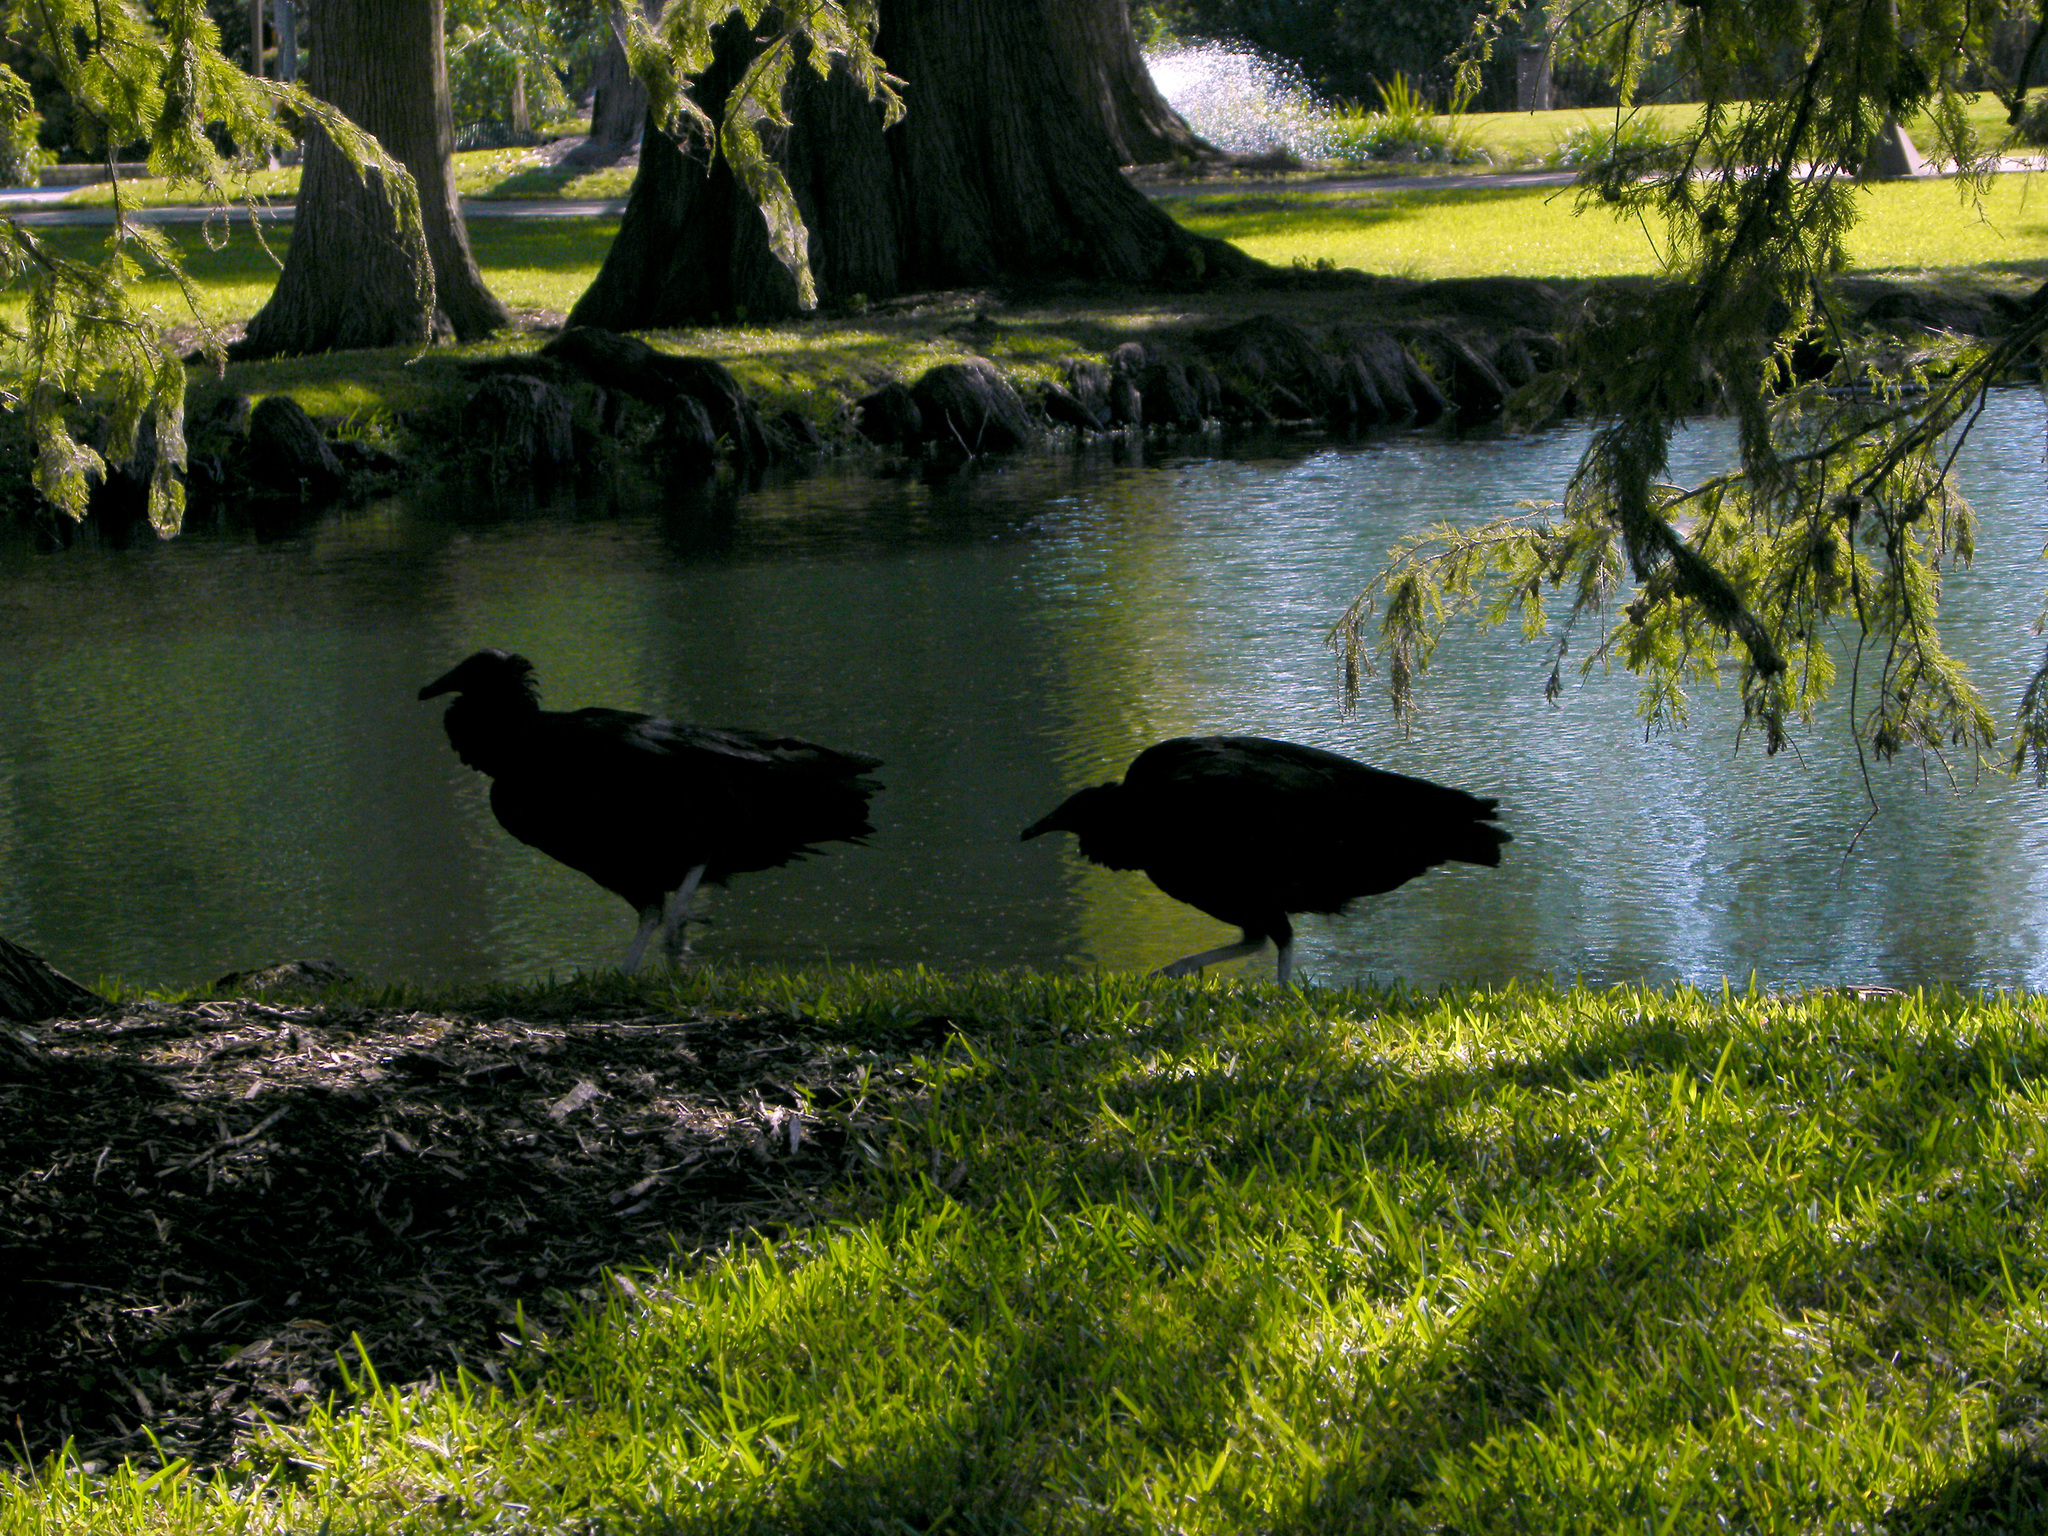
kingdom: Animalia
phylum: Chordata
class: Aves
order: Accipitriformes
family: Cathartidae
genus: Coragyps
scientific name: Coragyps atratus
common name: Black vulture
